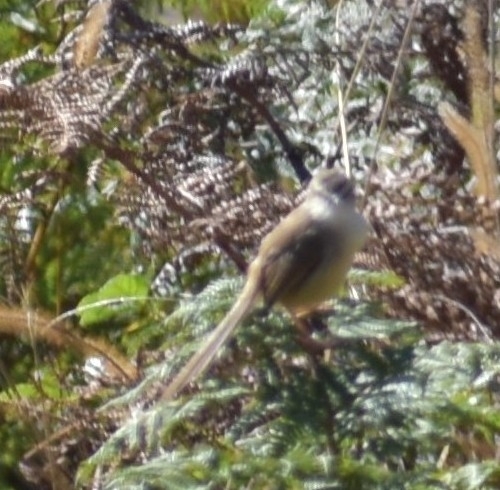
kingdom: Animalia
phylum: Chordata
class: Aves
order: Passeriformes
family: Cisticolidae
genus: Prinia
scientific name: Prinia subflava
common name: Tawny-flanked prinia
